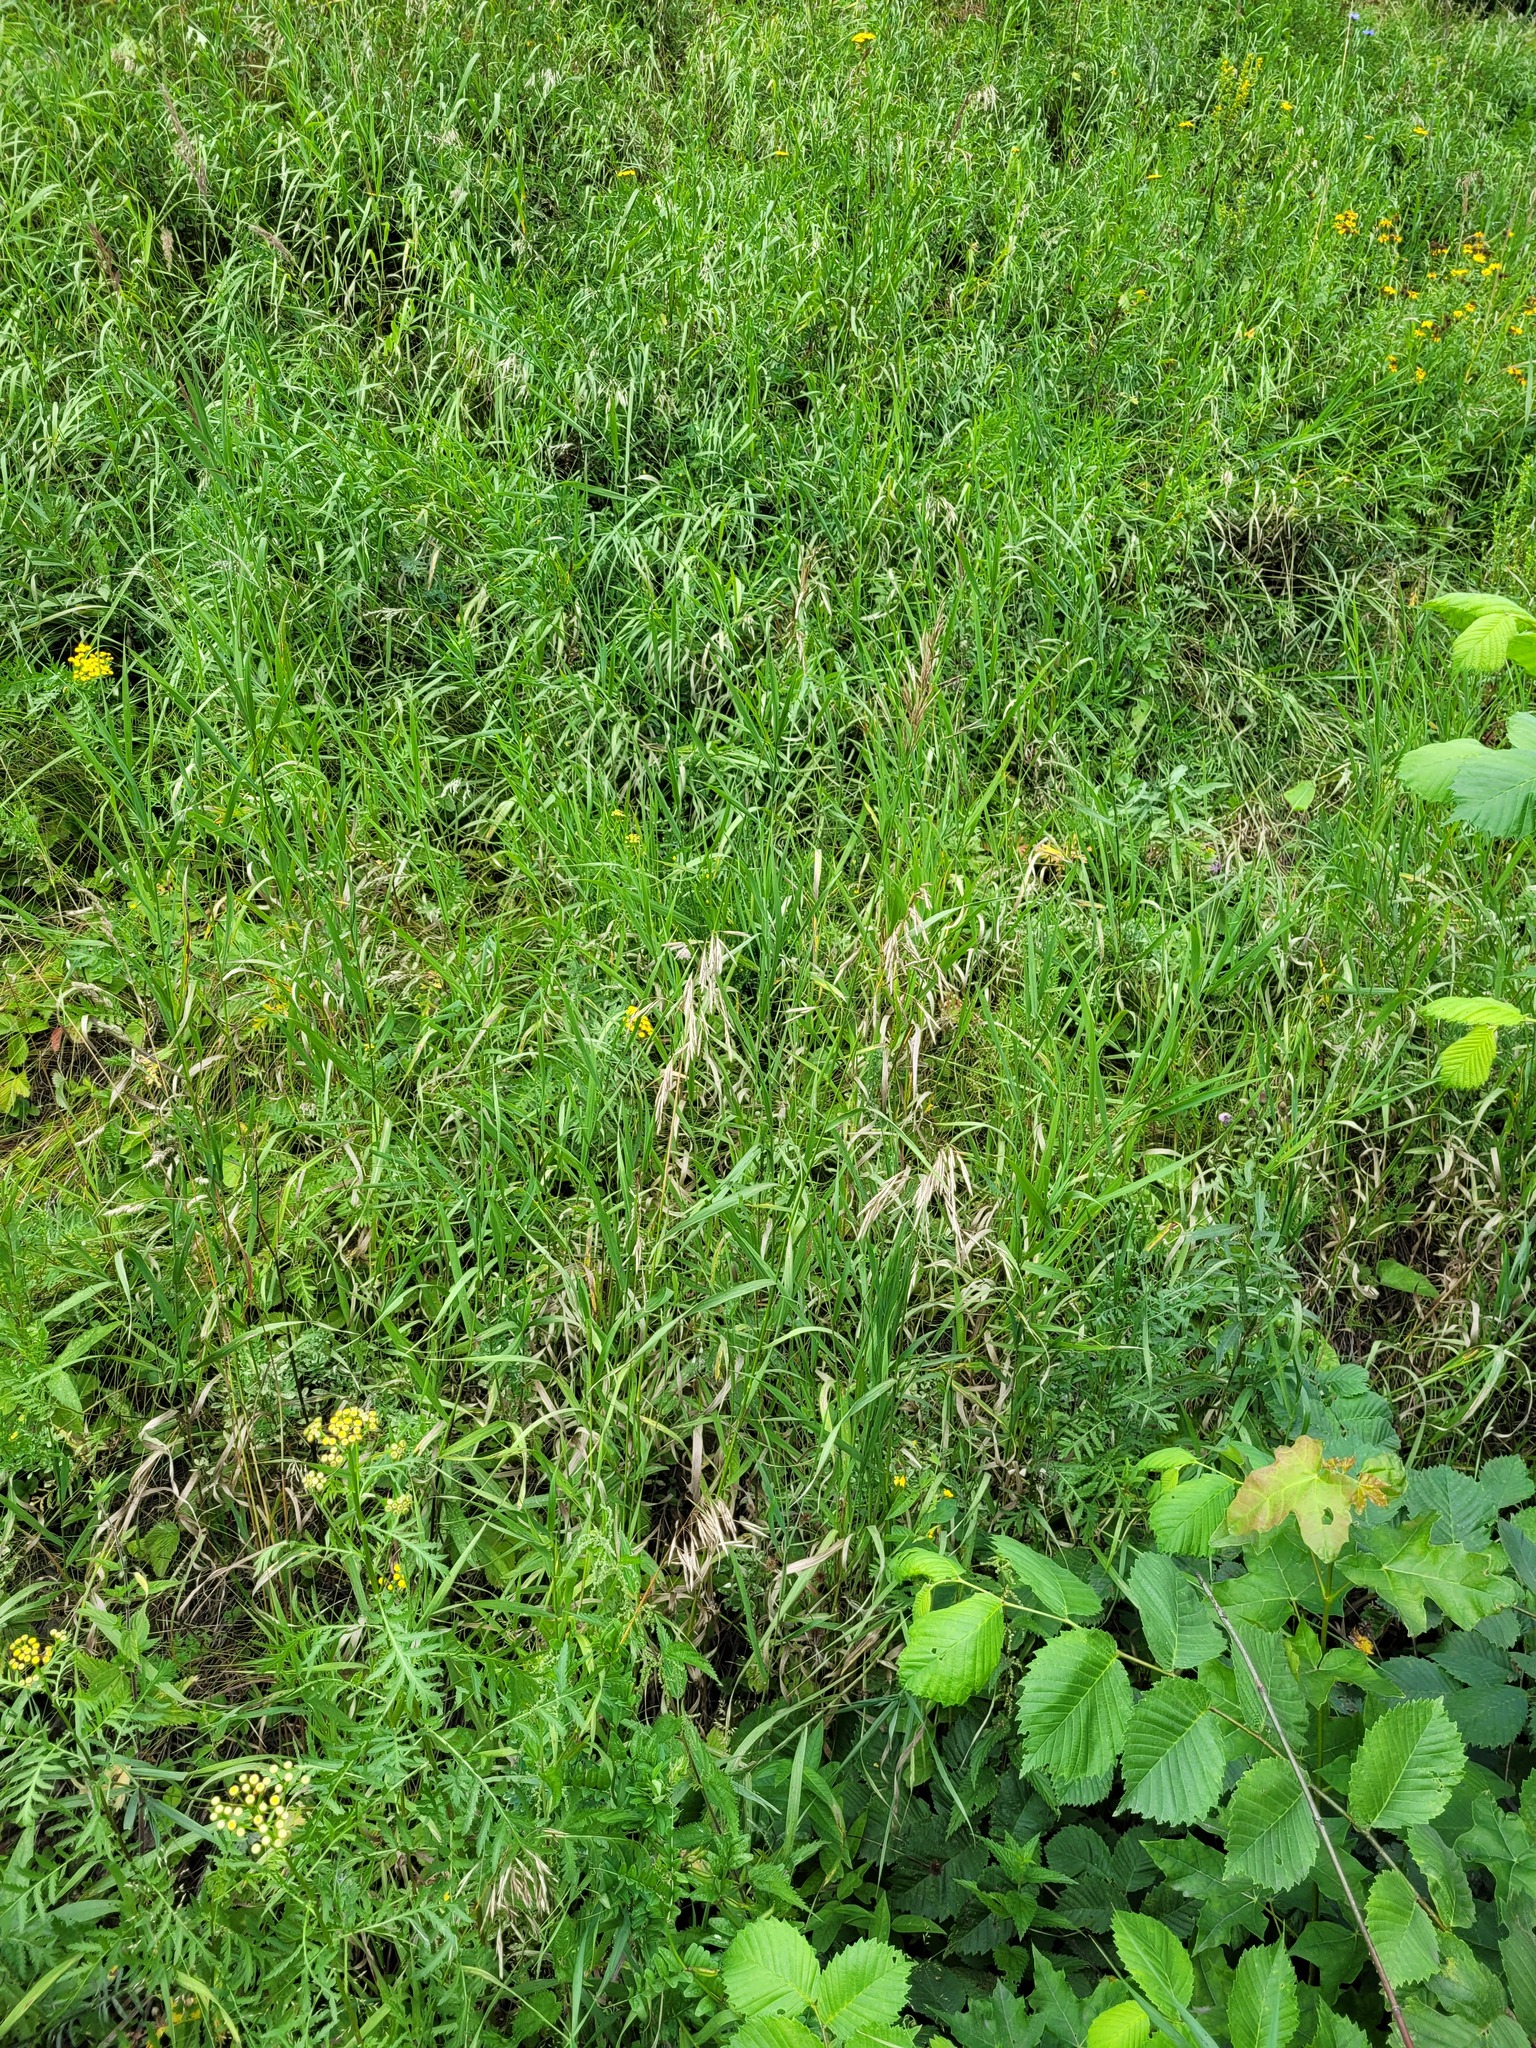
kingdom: Plantae
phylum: Tracheophyta
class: Liliopsida
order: Poales
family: Poaceae
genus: Bromus
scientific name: Bromus inermis
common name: Smooth brome
